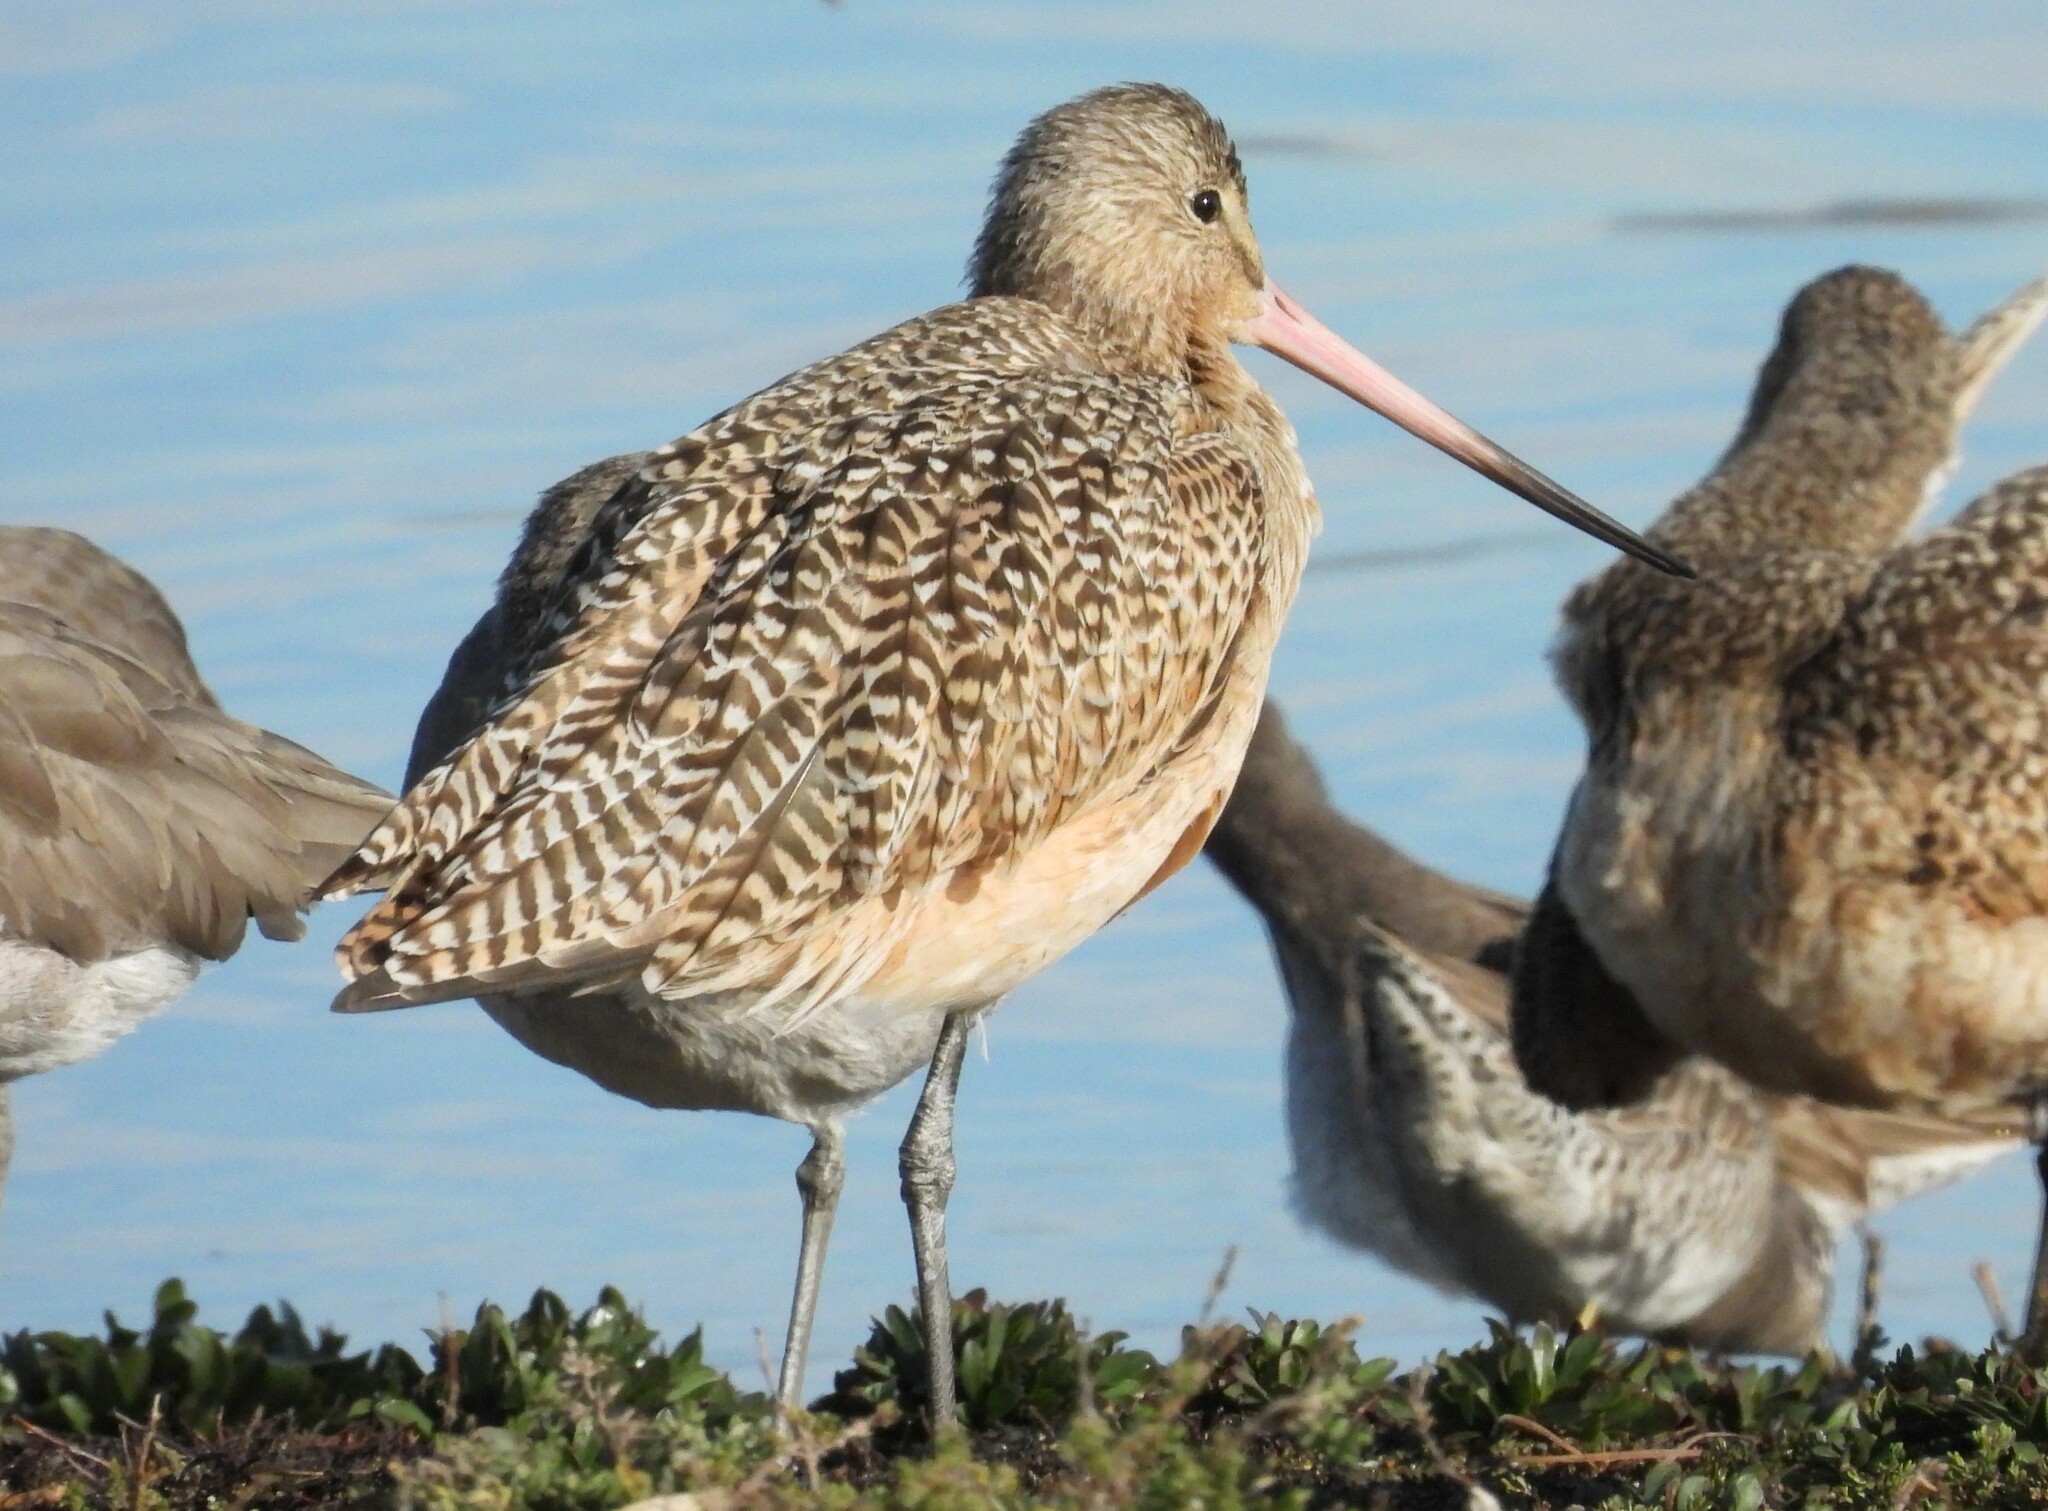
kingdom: Animalia
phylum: Chordata
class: Aves
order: Charadriiformes
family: Scolopacidae
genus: Limosa
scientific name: Limosa fedoa
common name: Marbled godwit
